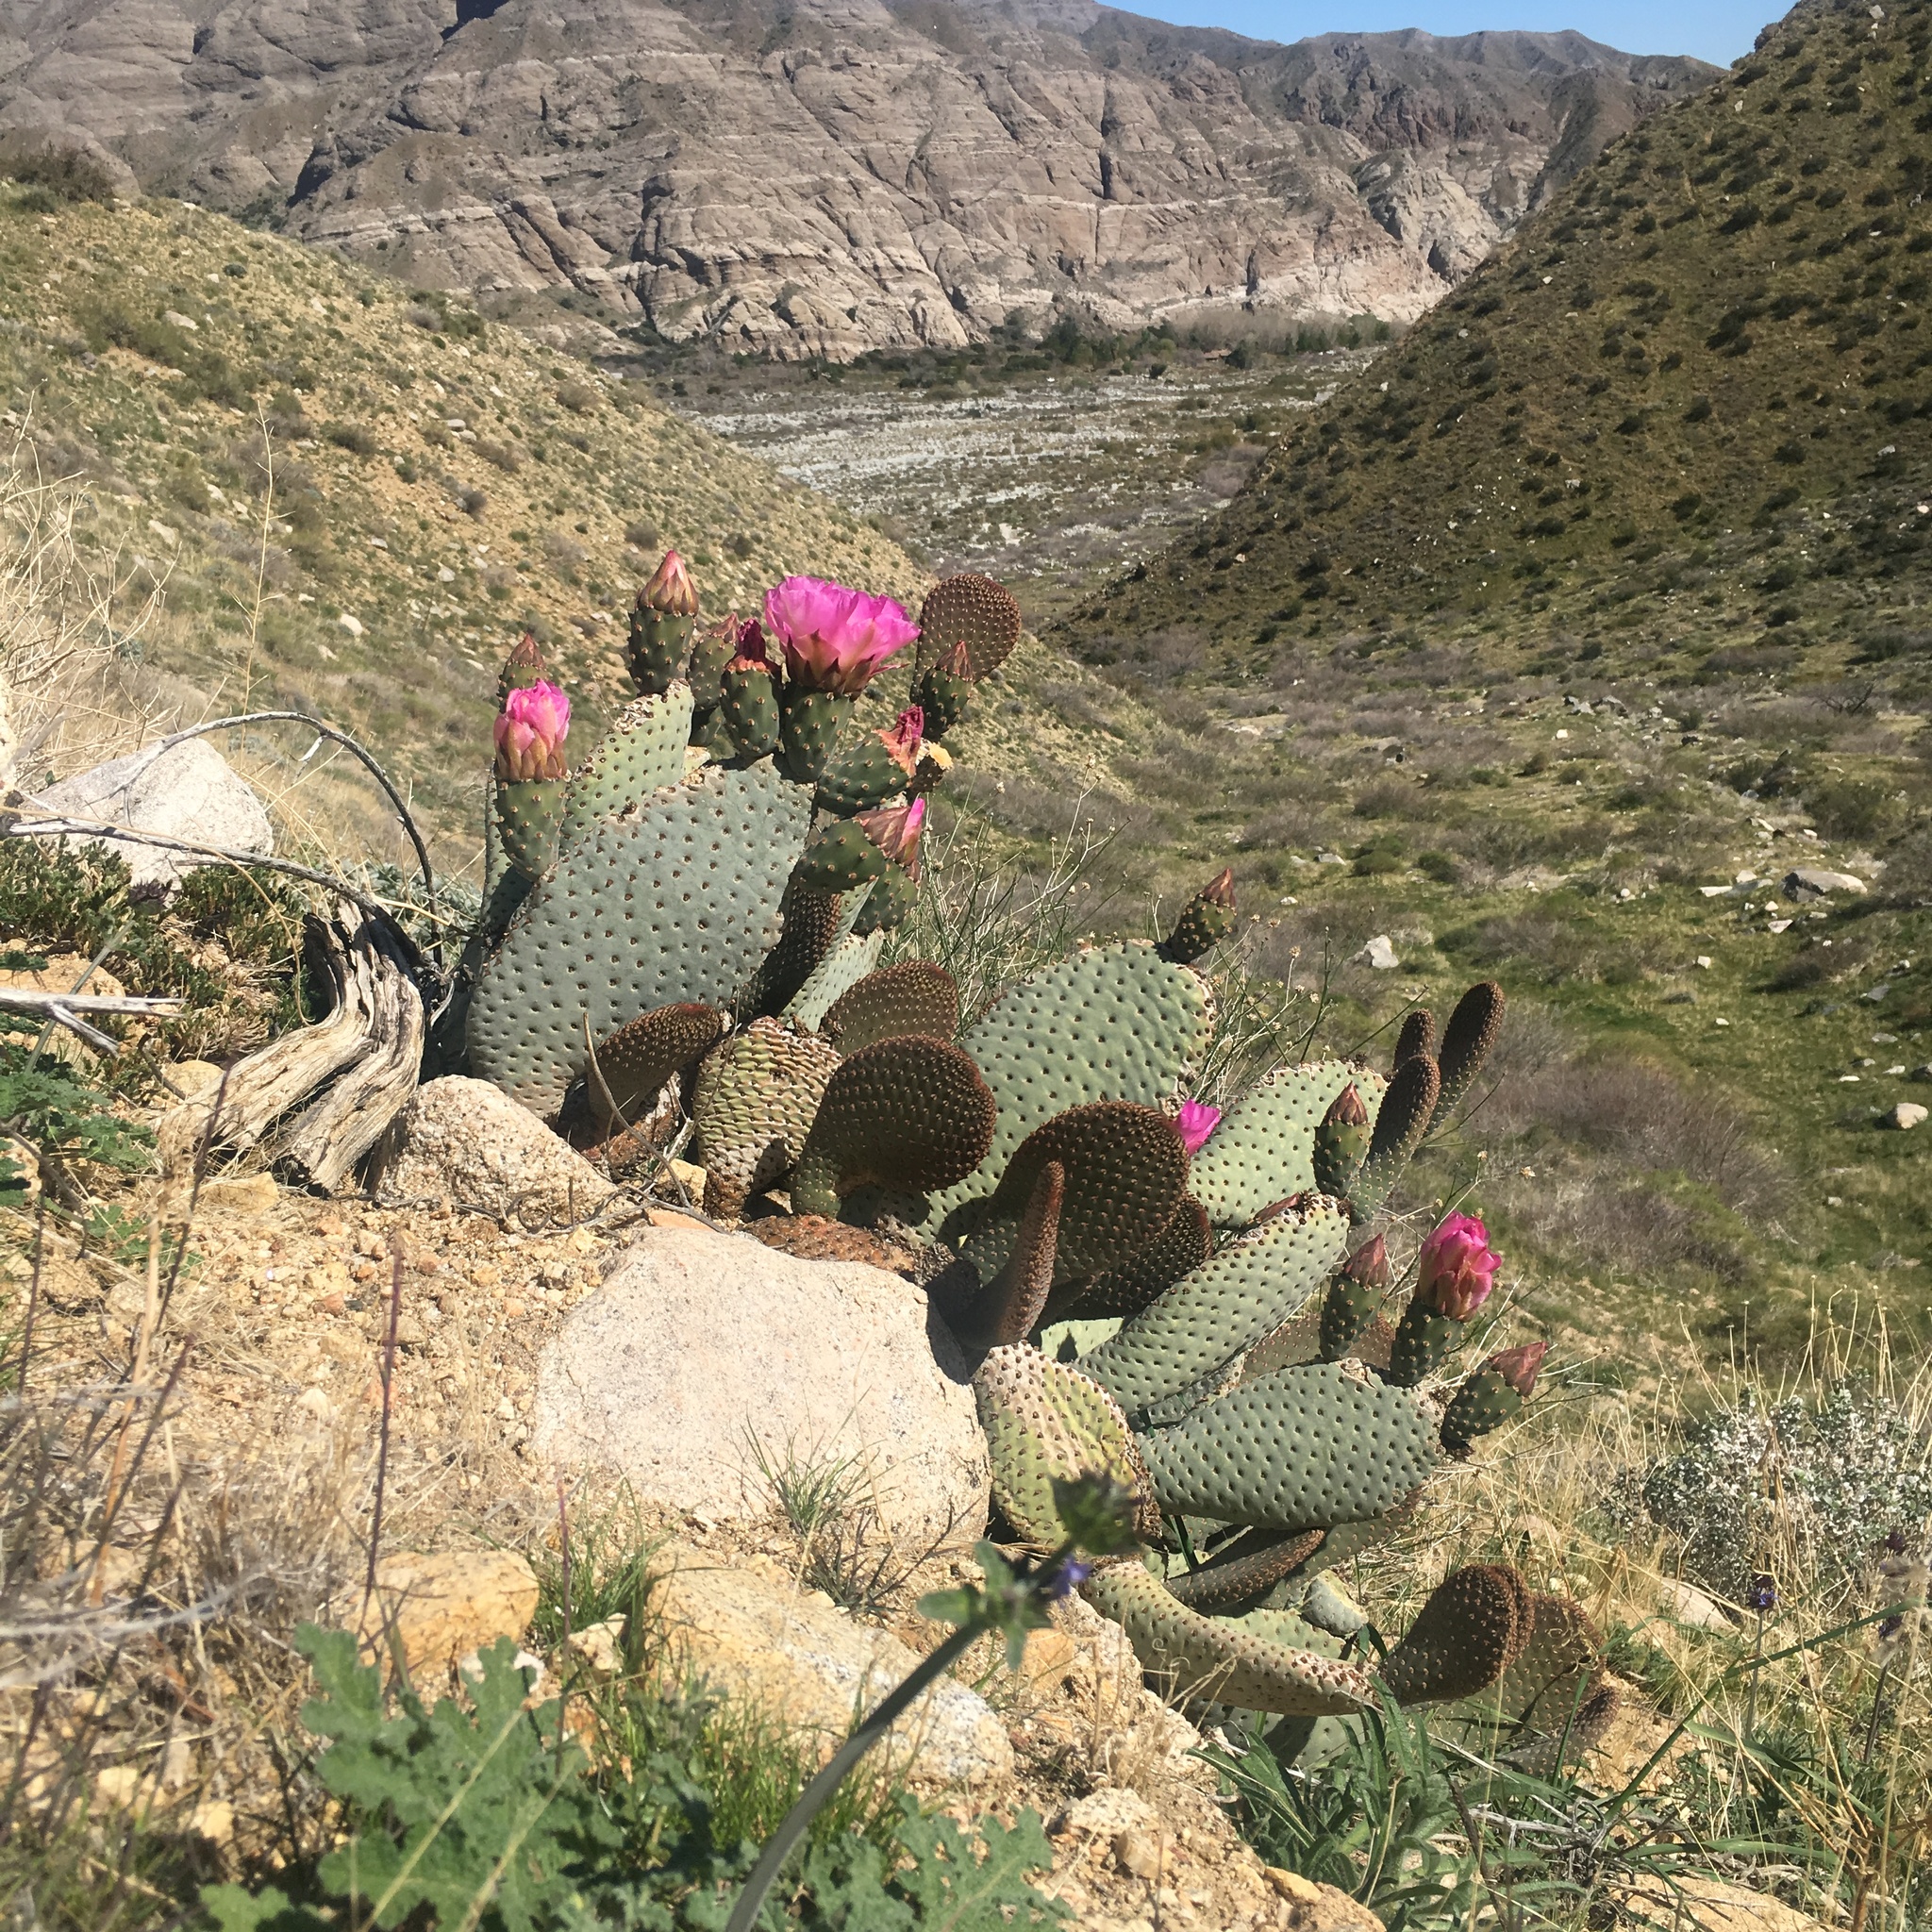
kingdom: Plantae
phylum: Tracheophyta
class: Magnoliopsida
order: Caryophyllales
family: Cactaceae
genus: Opuntia
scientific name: Opuntia basilaris
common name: Beavertail prickly-pear
